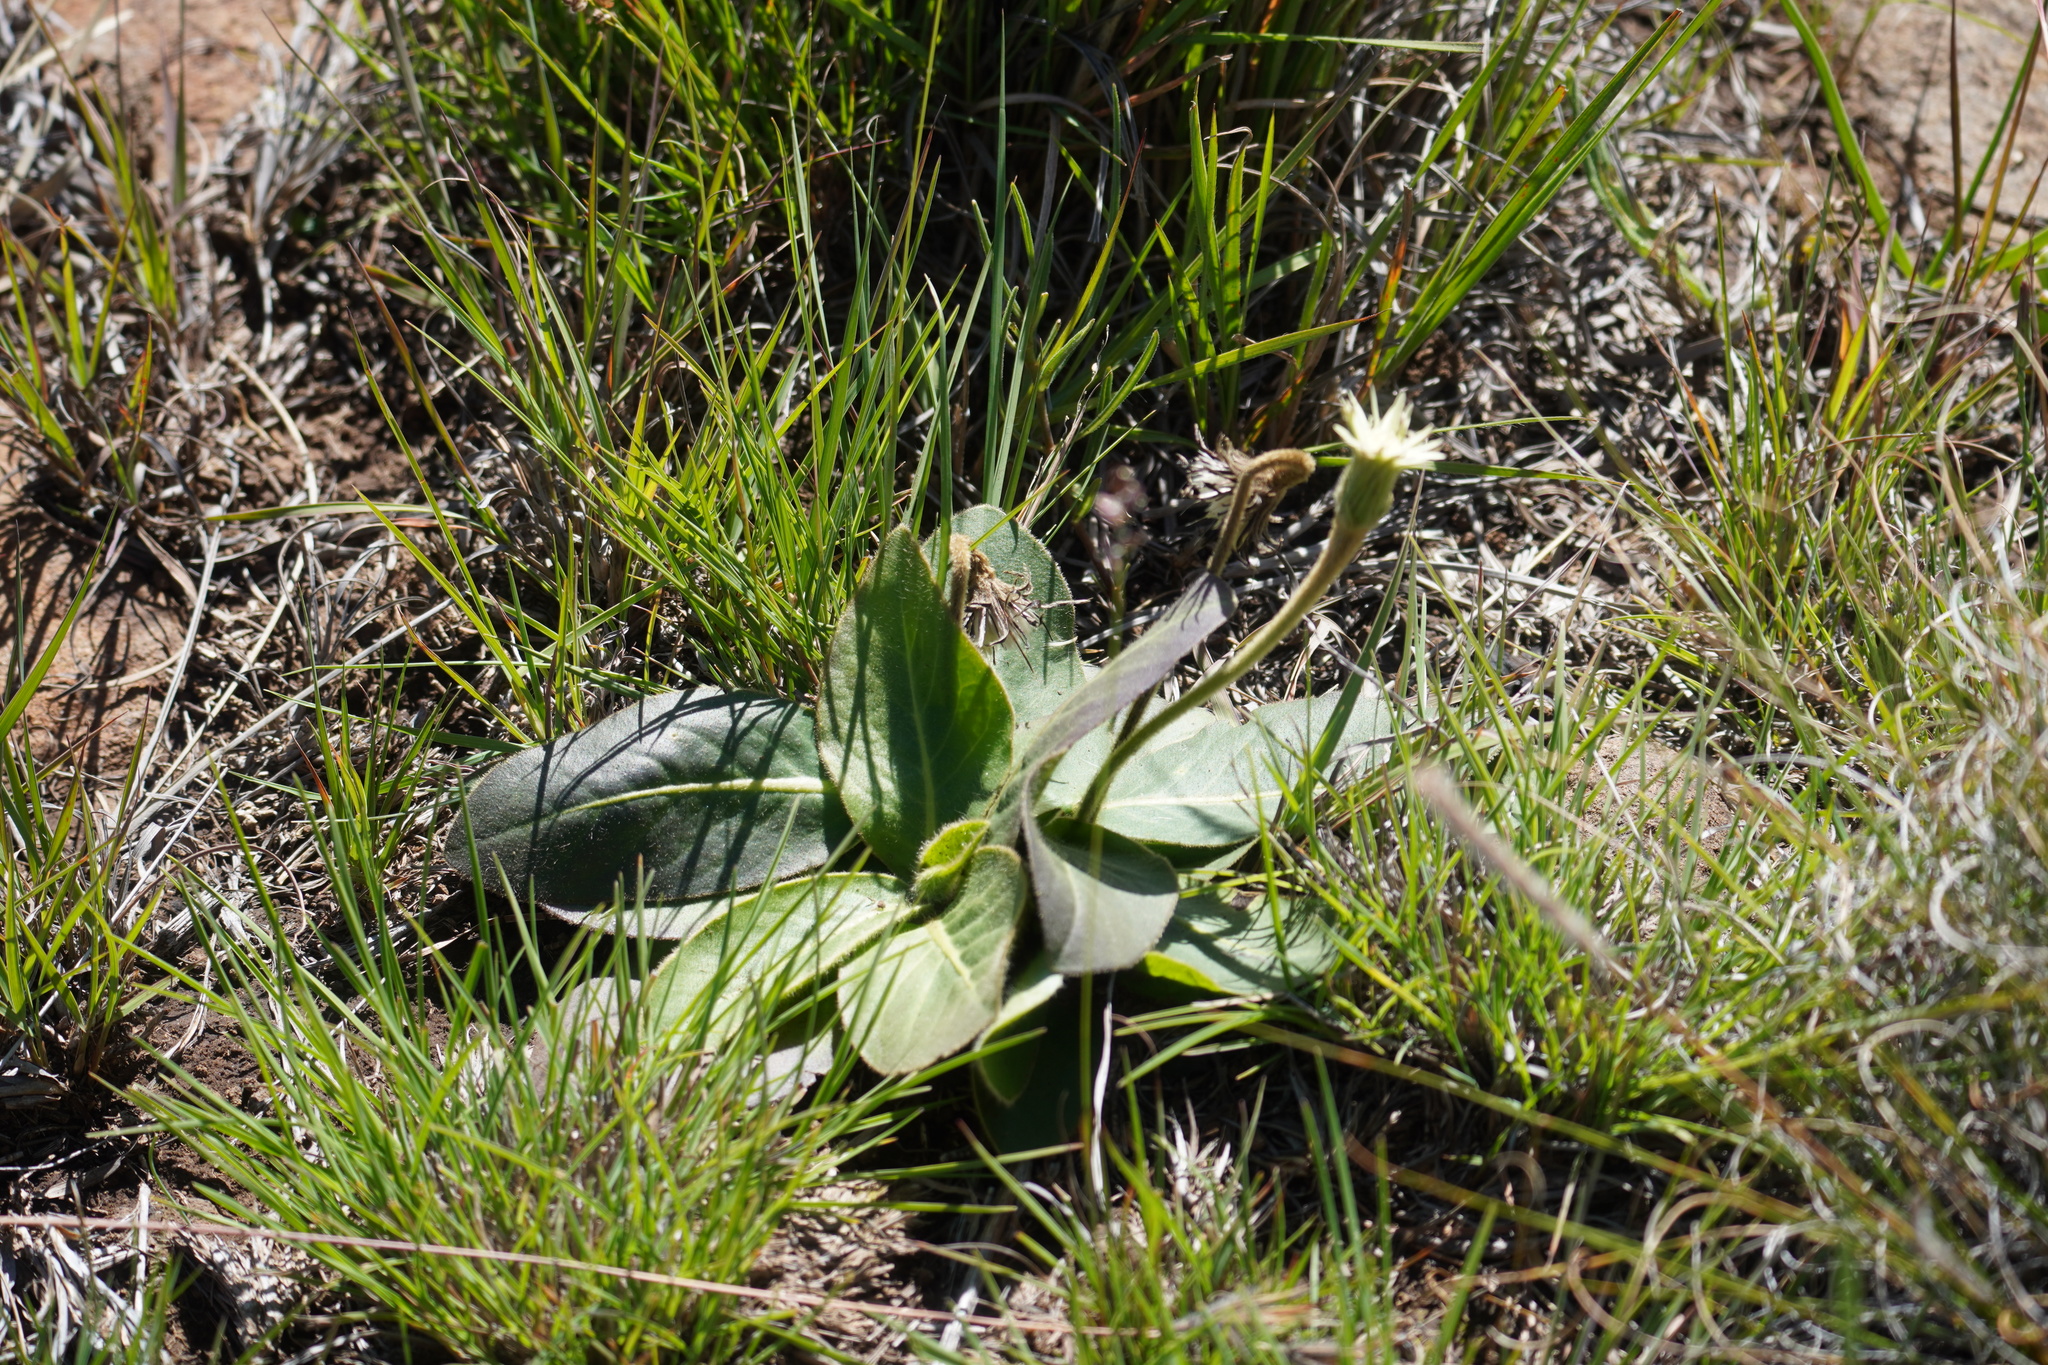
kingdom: Plantae
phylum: Tracheophyta
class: Magnoliopsida
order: Asterales
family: Asteraceae
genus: Piloselloides
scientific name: Piloselloides hirsuta
